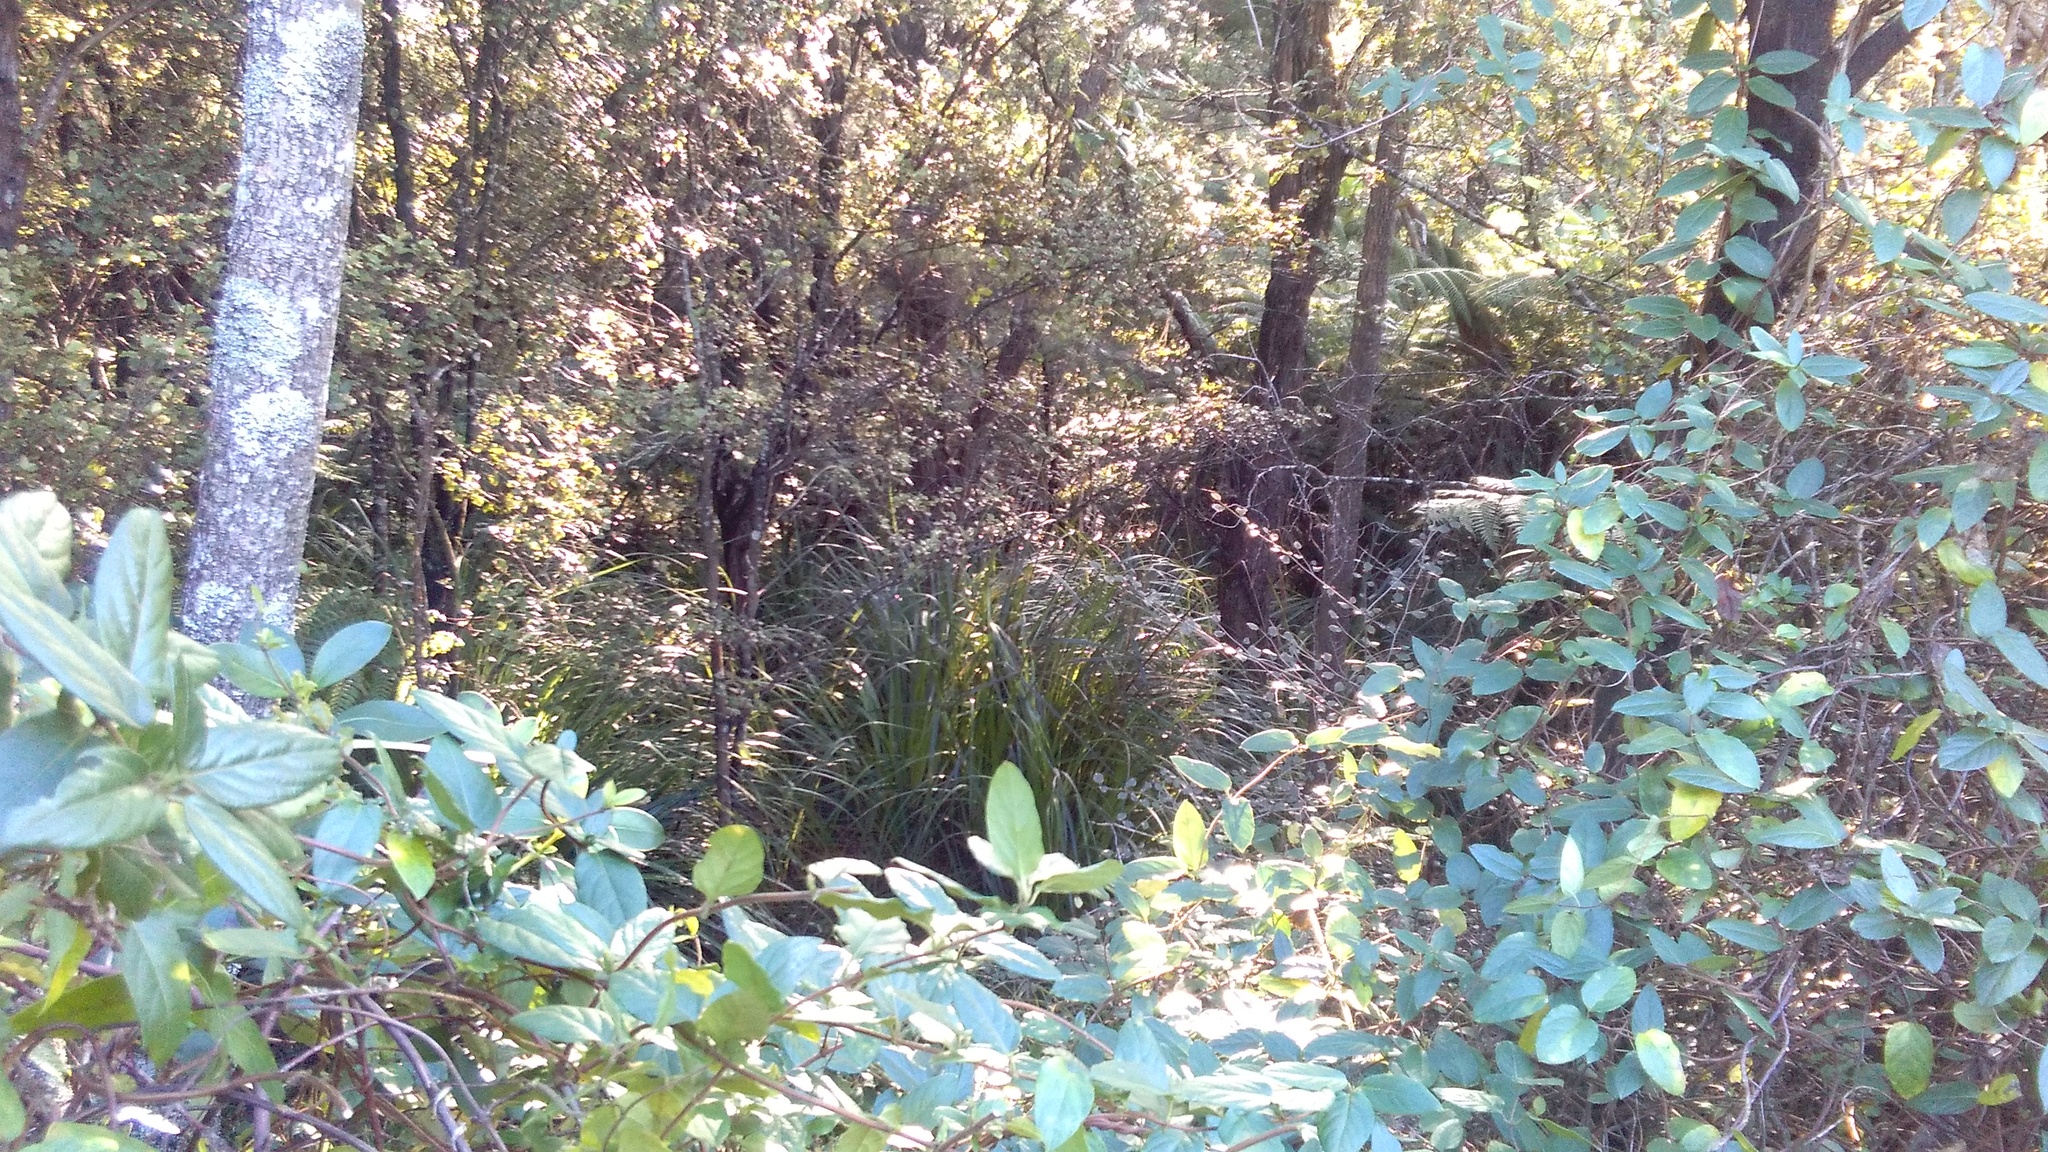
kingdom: Plantae
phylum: Tracheophyta
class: Liliopsida
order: Poales
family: Cyperaceae
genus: Gahnia
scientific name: Gahnia xanthocarpa
